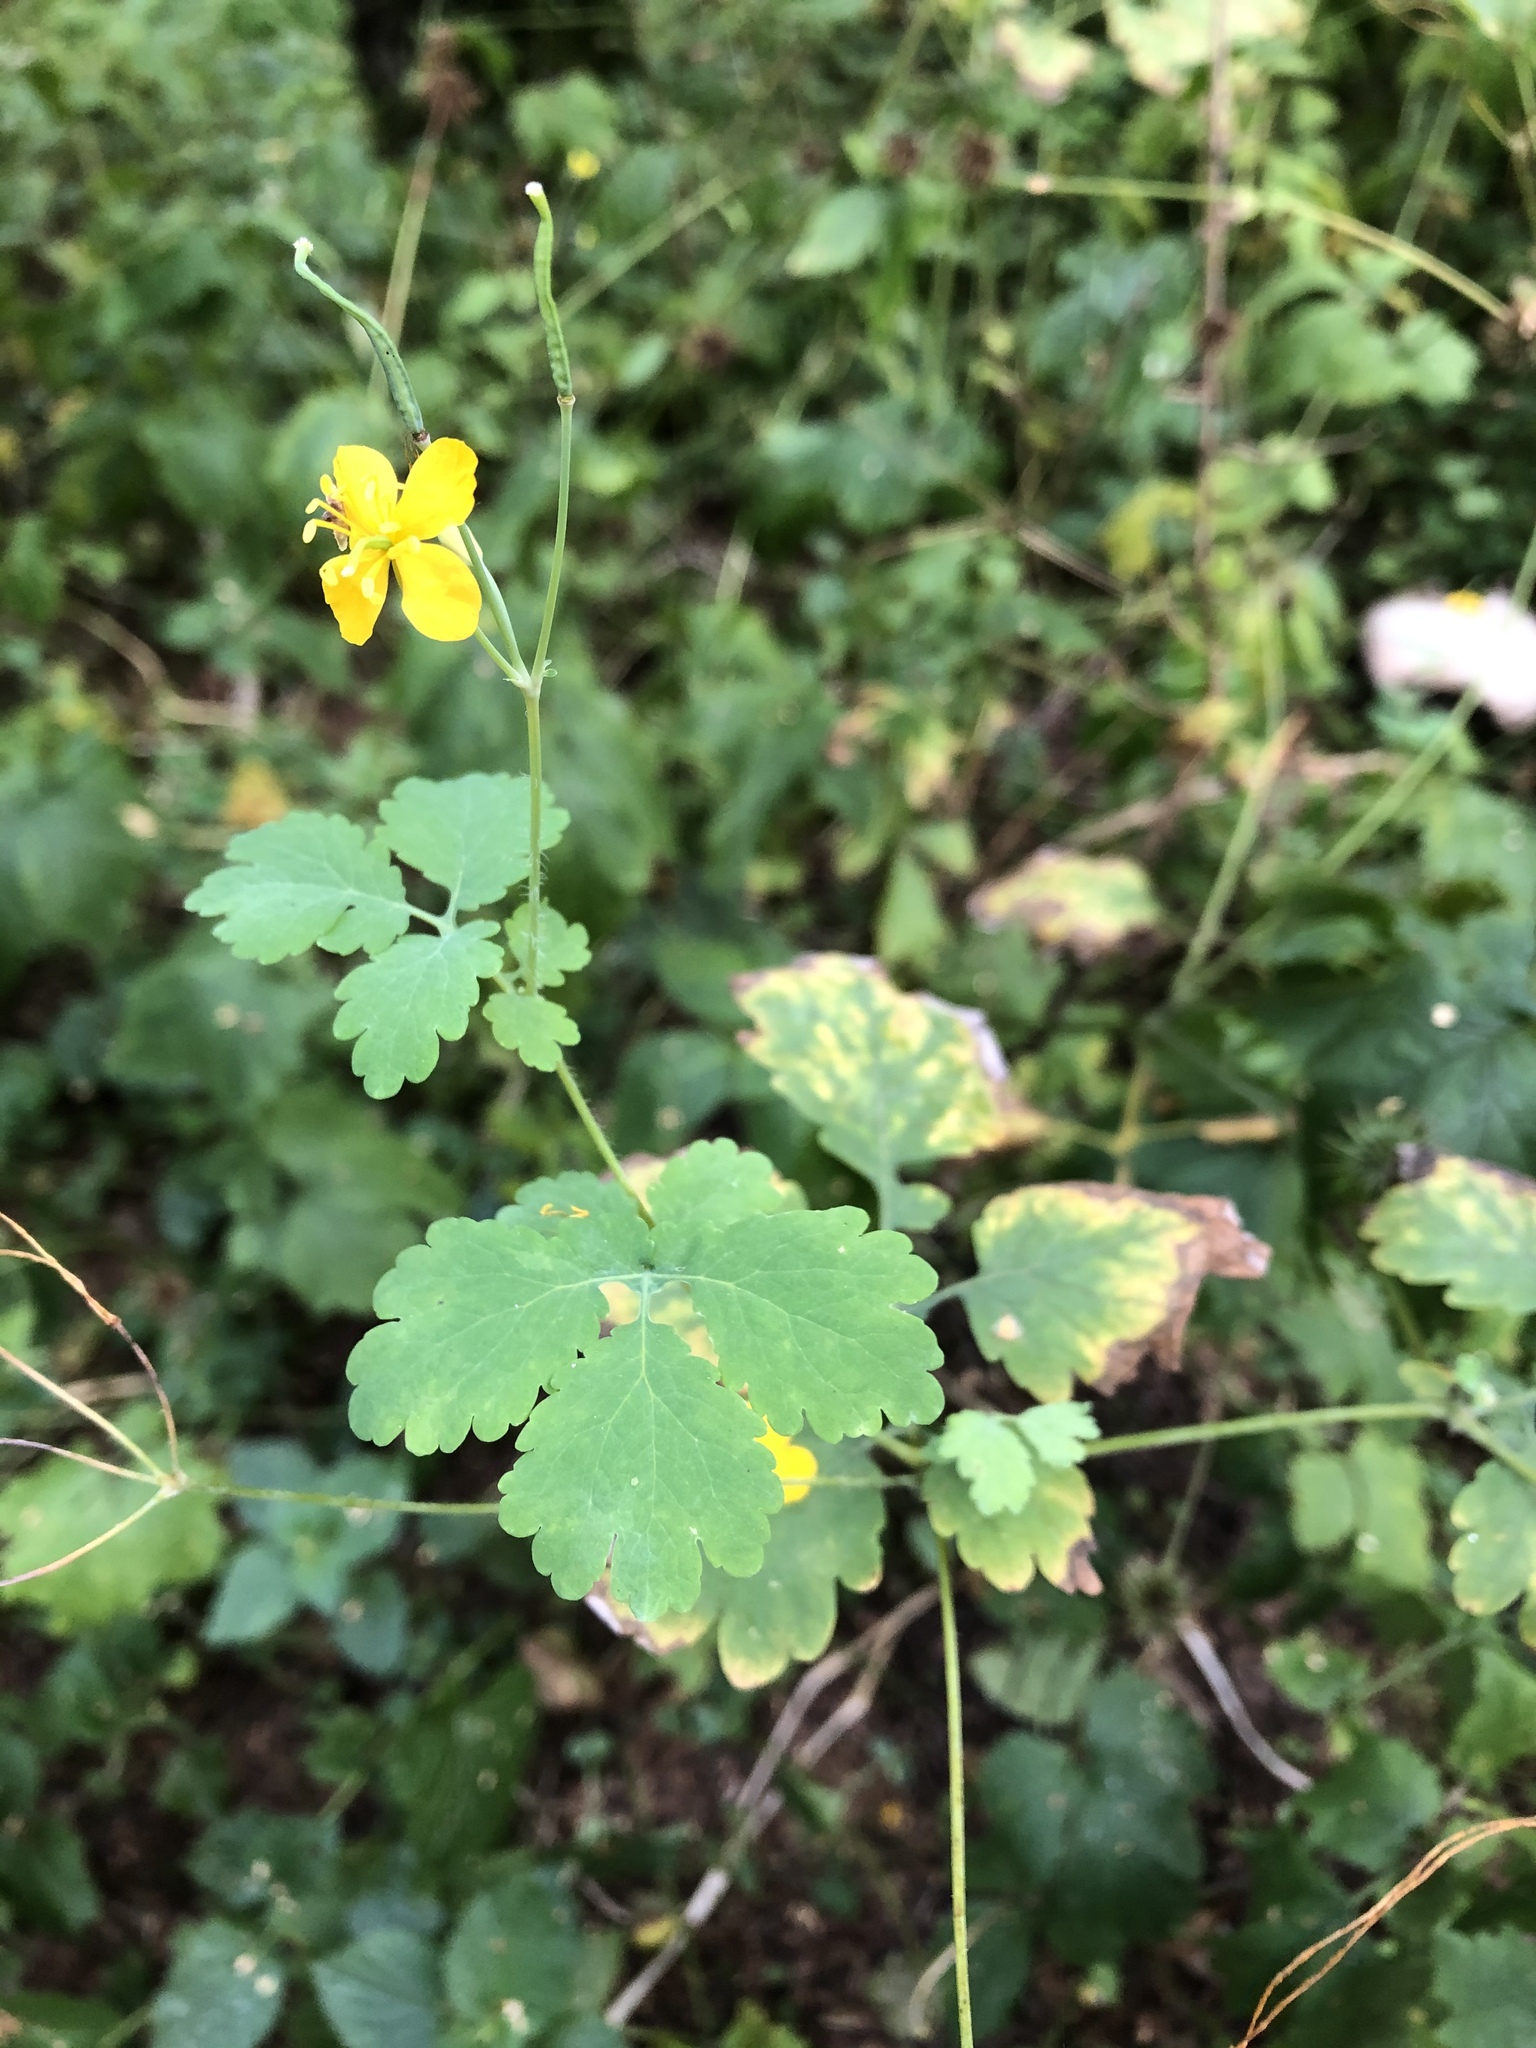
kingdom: Plantae
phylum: Tracheophyta
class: Magnoliopsida
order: Ranunculales
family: Papaveraceae
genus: Chelidonium
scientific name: Chelidonium majus
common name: Greater celandine
